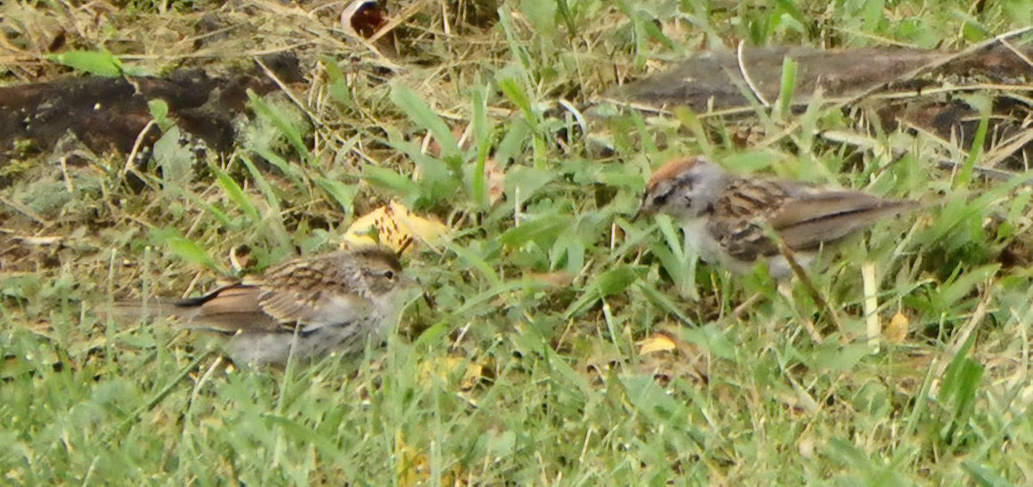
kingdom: Animalia
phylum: Chordata
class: Aves
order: Passeriformes
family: Passerellidae
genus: Spizella
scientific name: Spizella passerina
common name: Chipping sparrow
